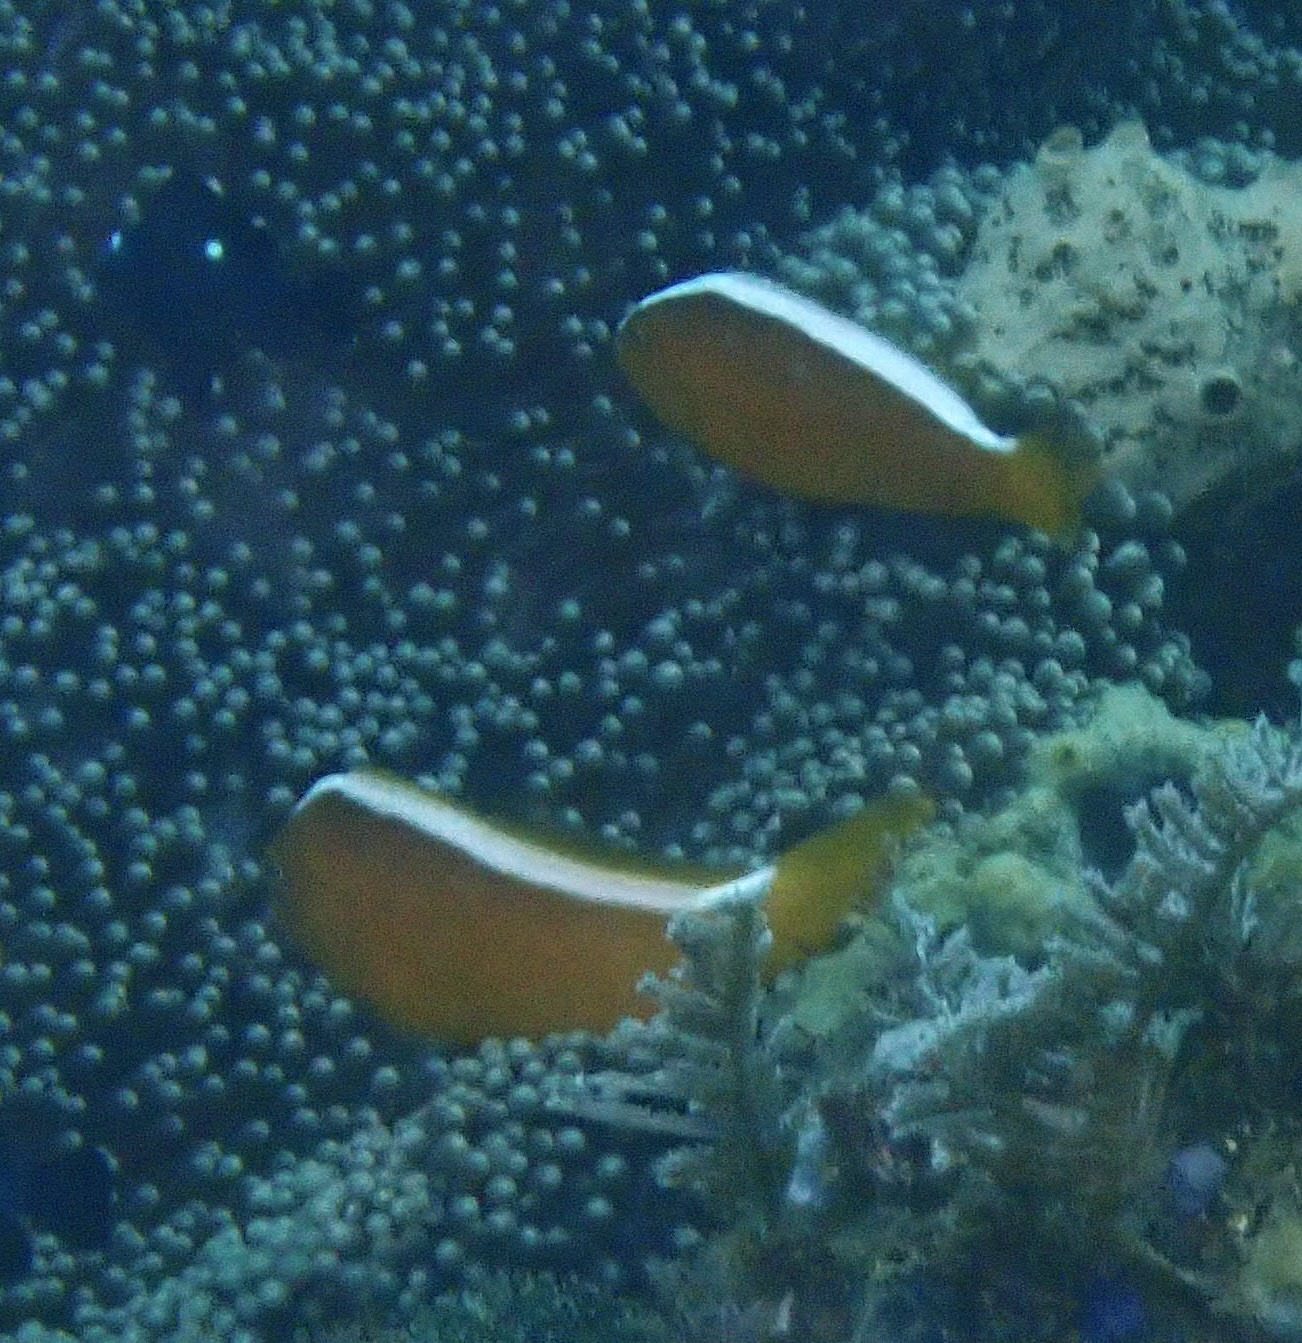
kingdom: Animalia
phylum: Chordata
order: Perciformes
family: Pomacentridae
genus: Amphiprion
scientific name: Amphiprion sandaracinos
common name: Orange anemonefish
